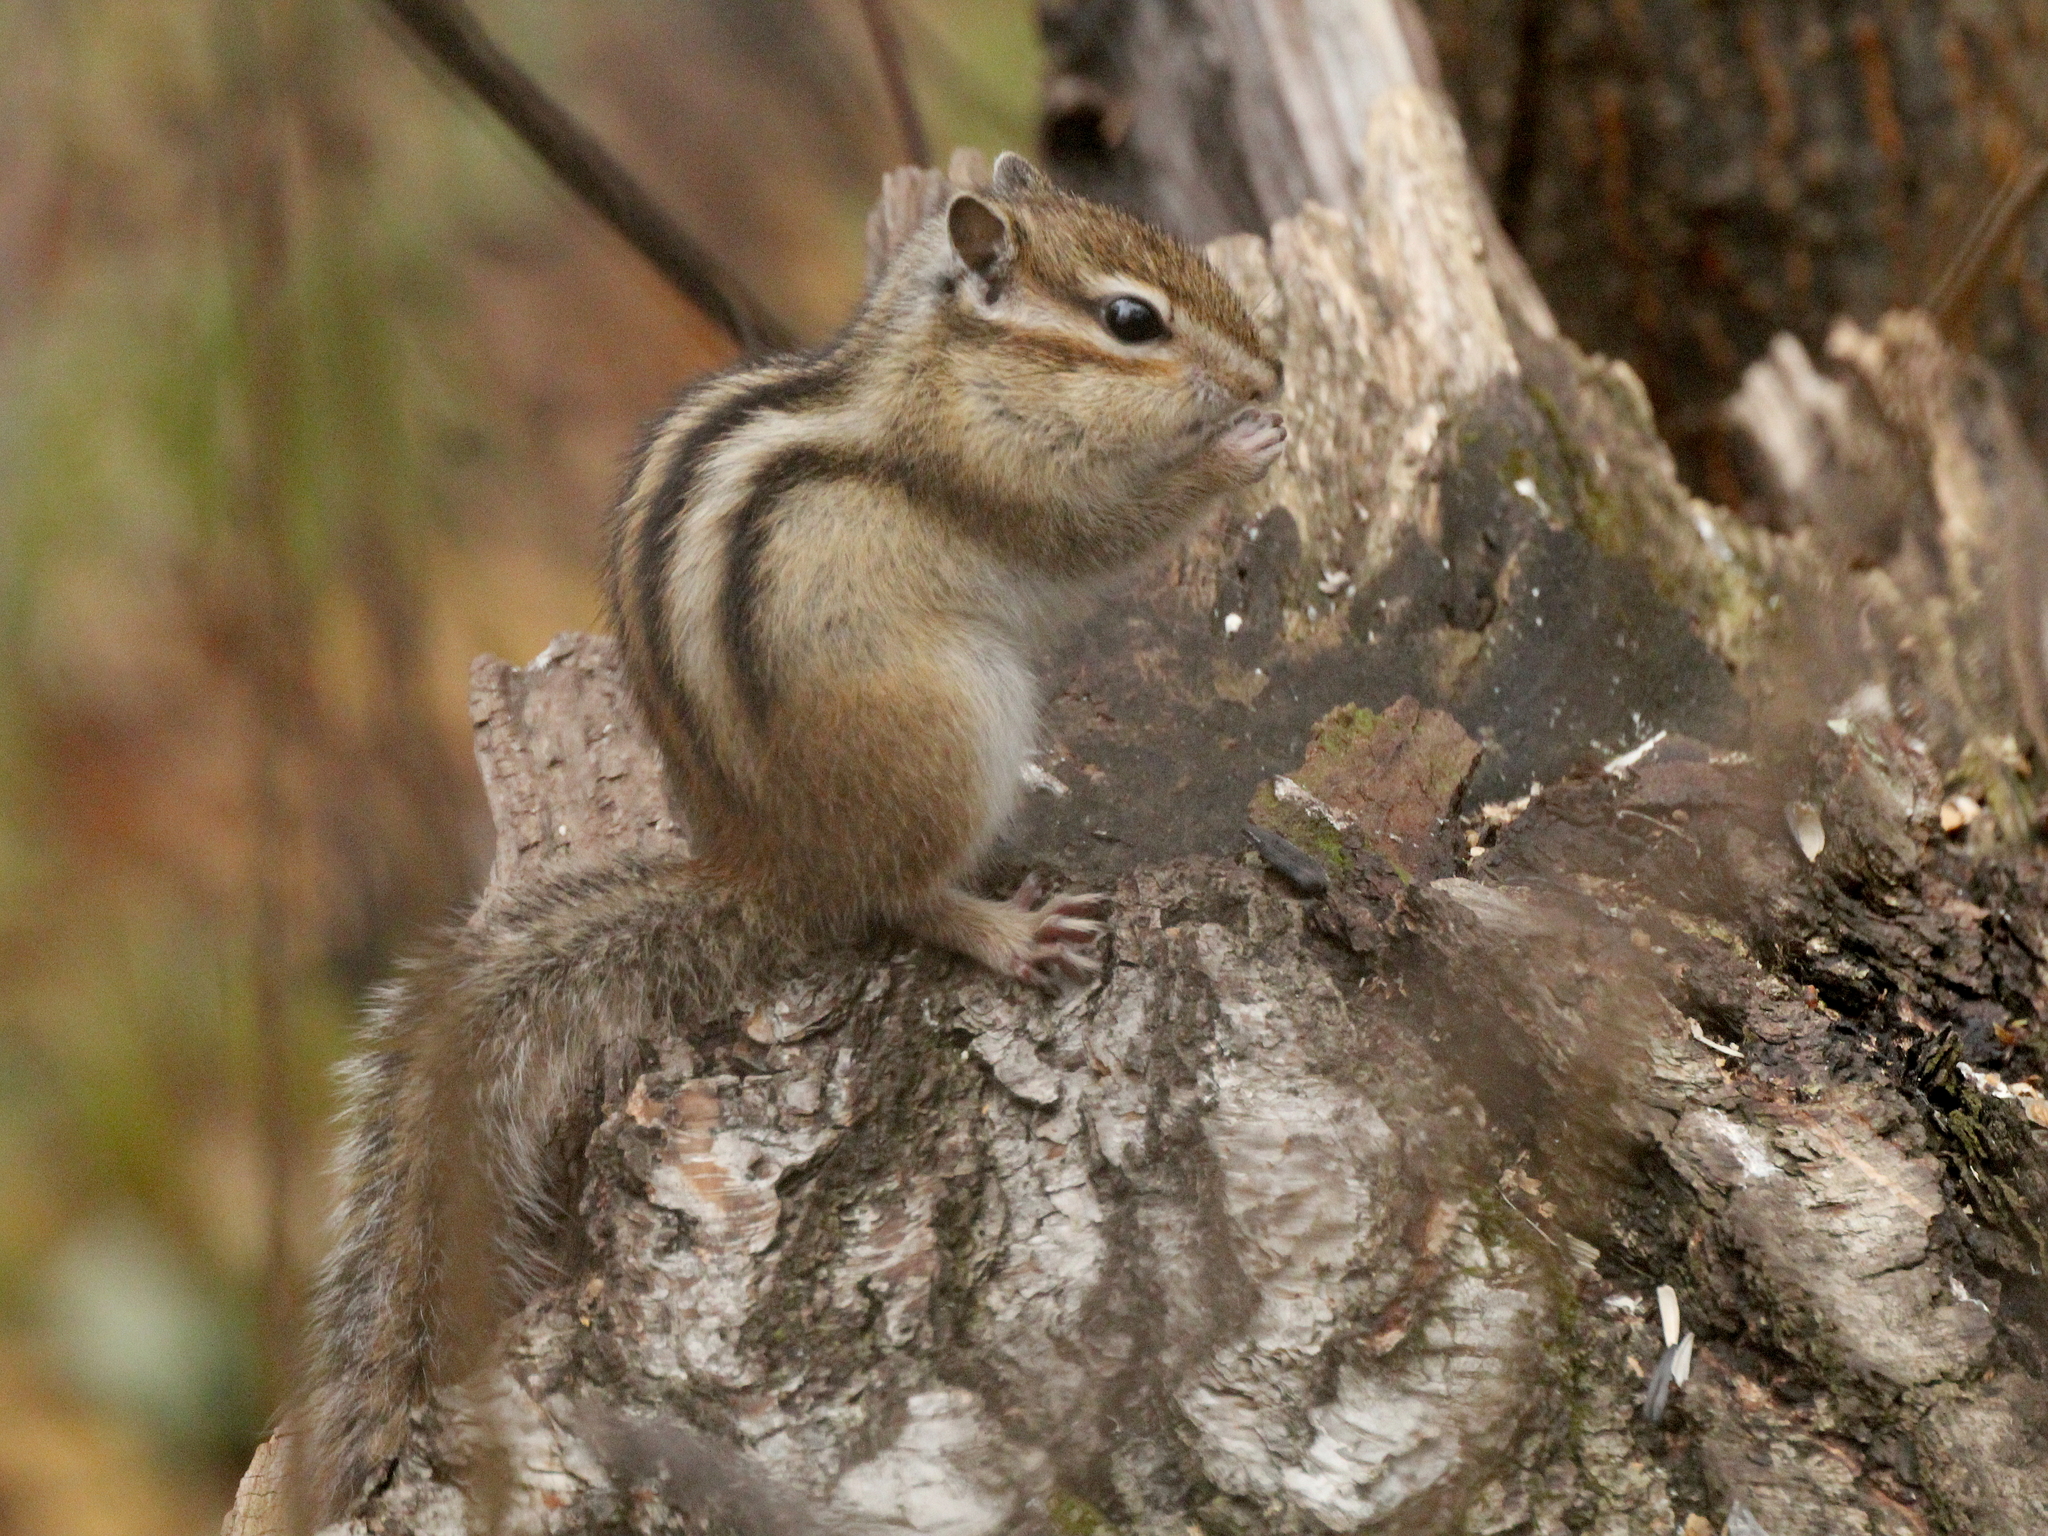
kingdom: Animalia
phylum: Chordata
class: Mammalia
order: Rodentia
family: Sciuridae
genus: Tamias
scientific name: Tamias sibiricus
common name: Siberian chipmunk
